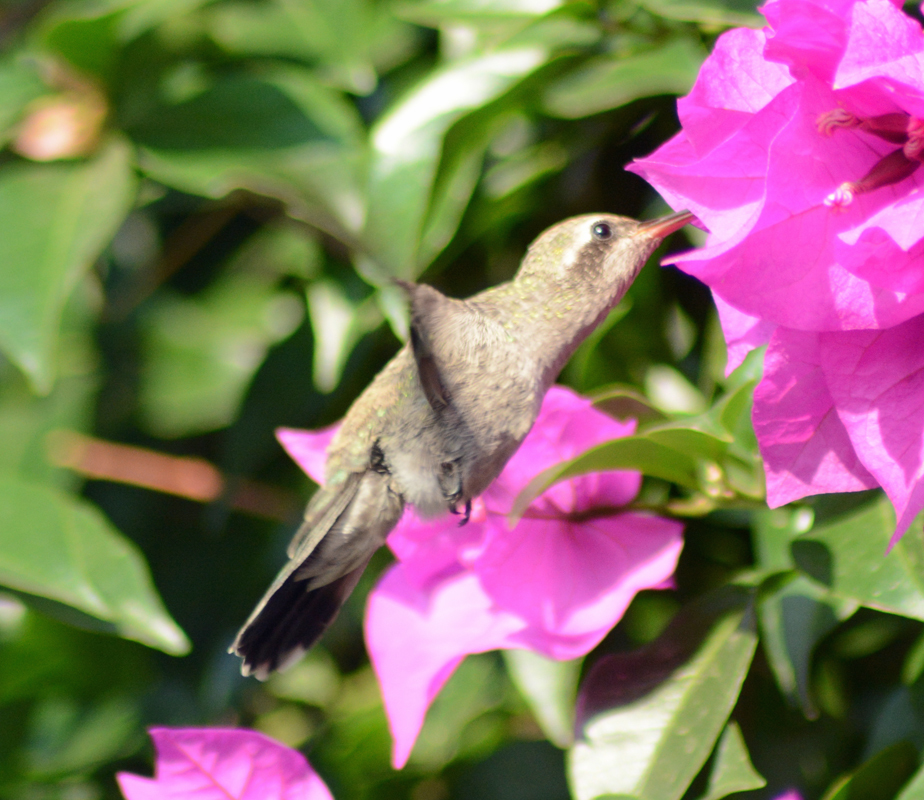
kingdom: Animalia
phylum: Chordata
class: Aves
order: Apodiformes
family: Trochilidae
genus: Cynanthus
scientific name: Cynanthus latirostris
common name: Broad-billed hummingbird
